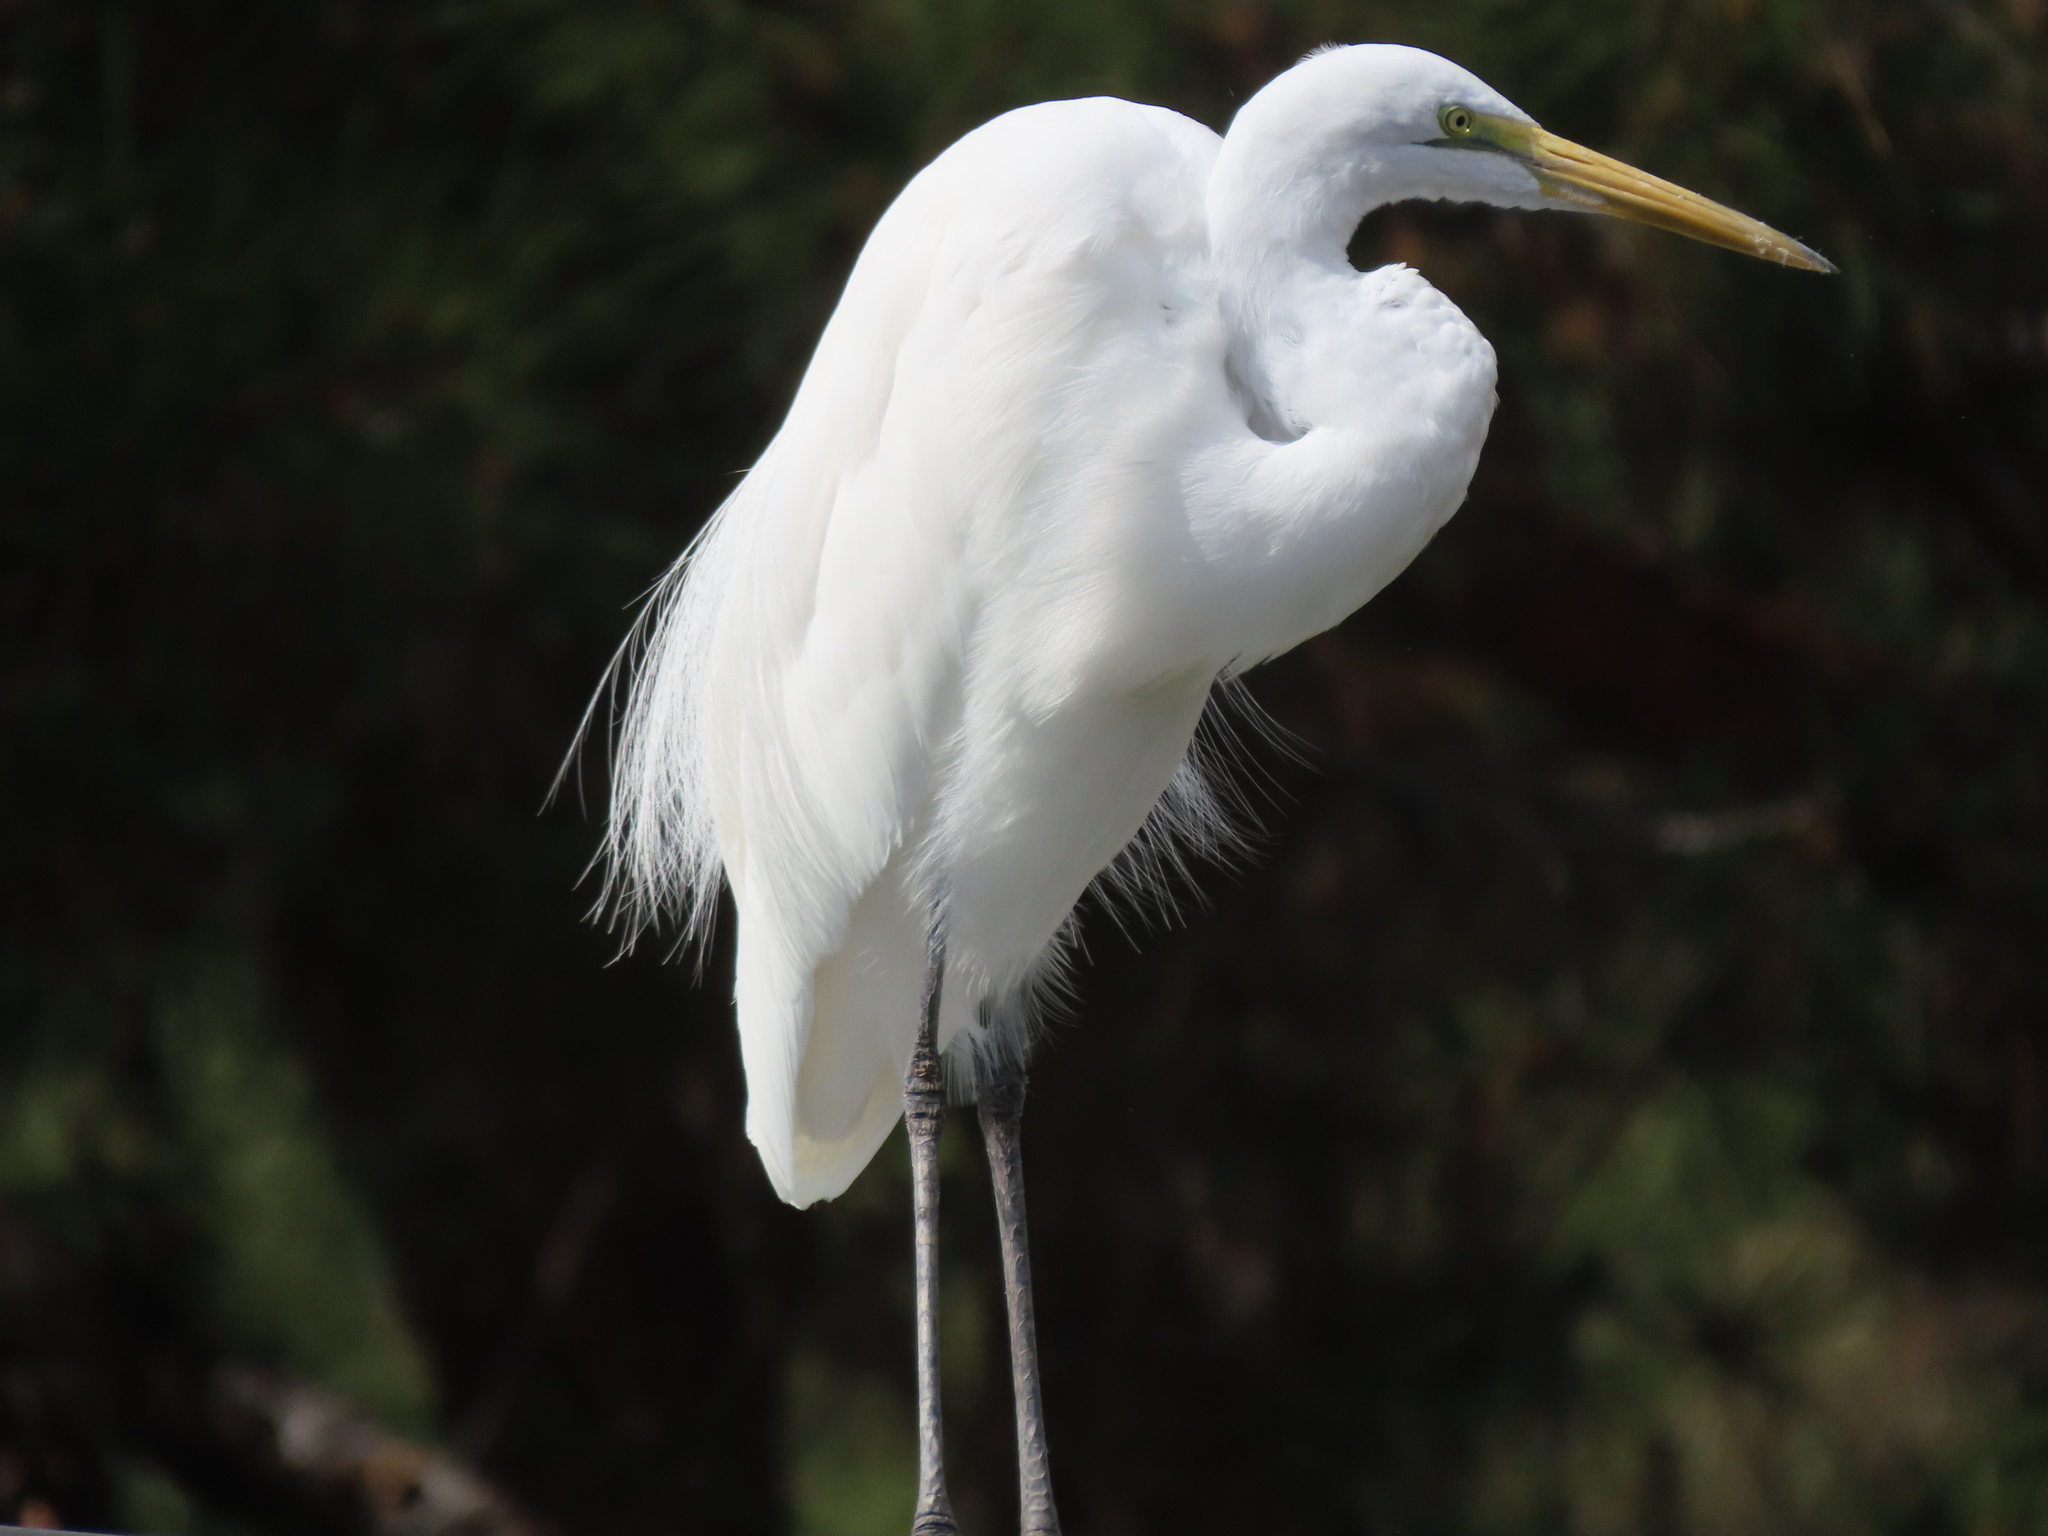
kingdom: Animalia
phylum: Chordata
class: Aves
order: Pelecaniformes
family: Ardeidae
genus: Ardea
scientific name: Ardea alba
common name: Great egret
